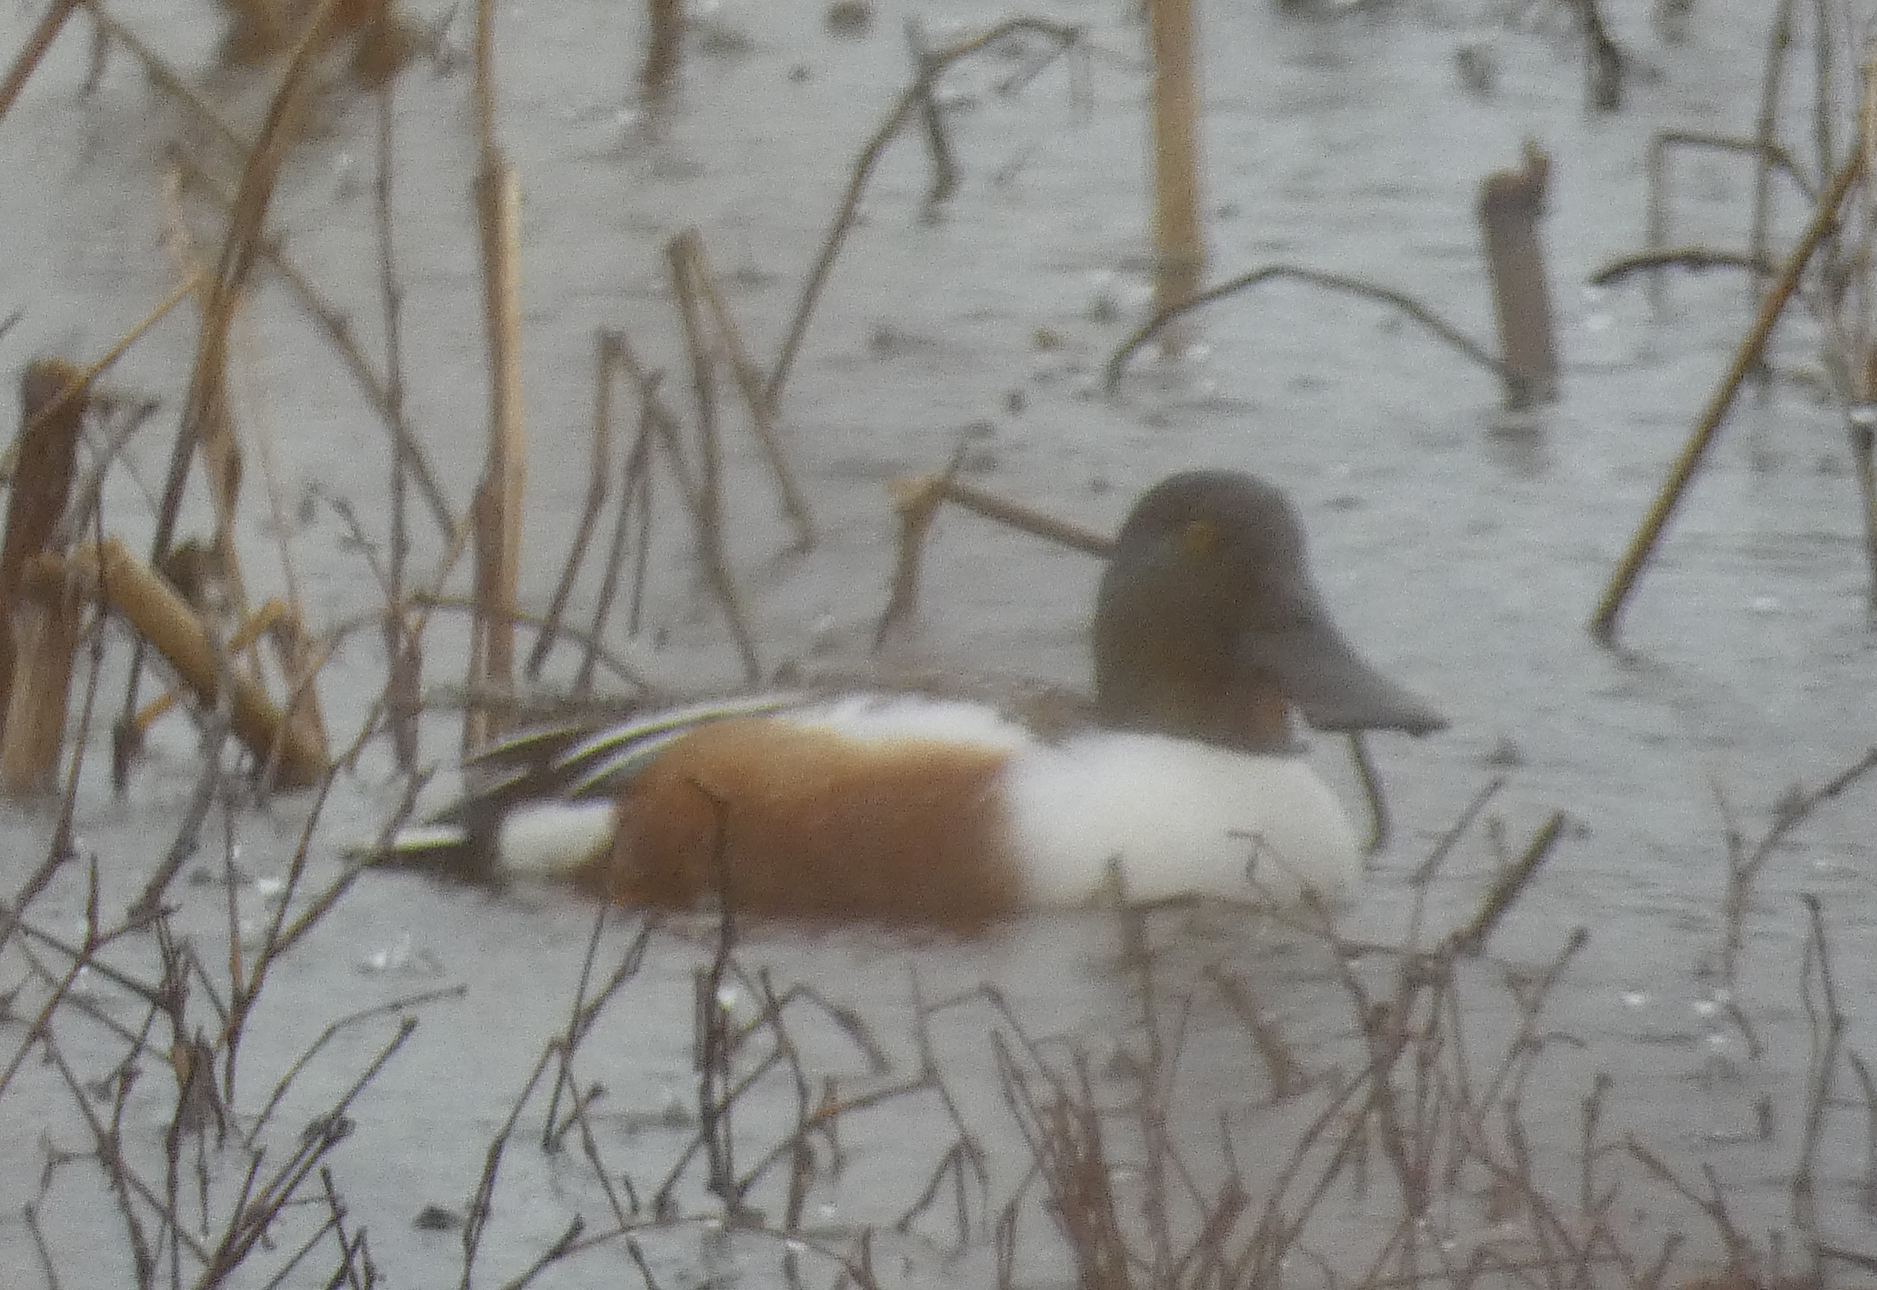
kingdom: Animalia
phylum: Chordata
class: Aves
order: Anseriformes
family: Anatidae
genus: Spatula
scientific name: Spatula clypeata
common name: Northern shoveler
